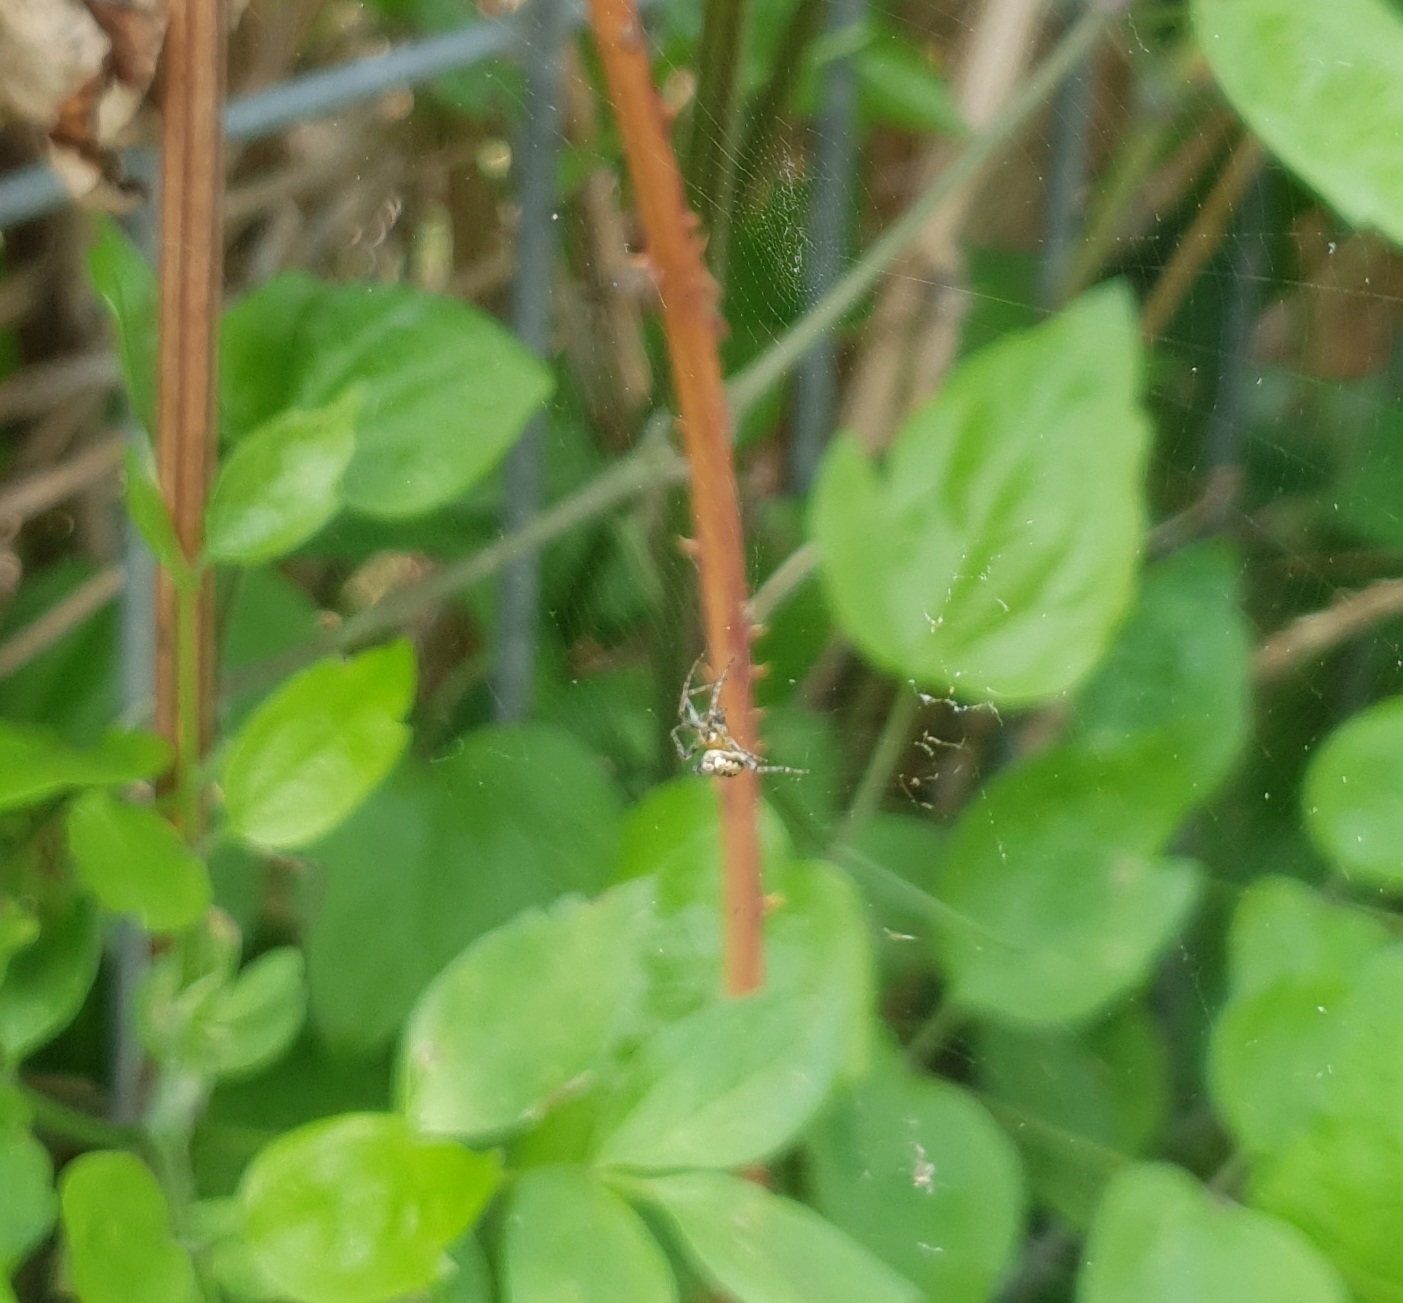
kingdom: Animalia
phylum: Arthropoda
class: Arachnida
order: Araneae
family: Araneidae
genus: Zilla
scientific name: Zilla diodia
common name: Zilla diodia
